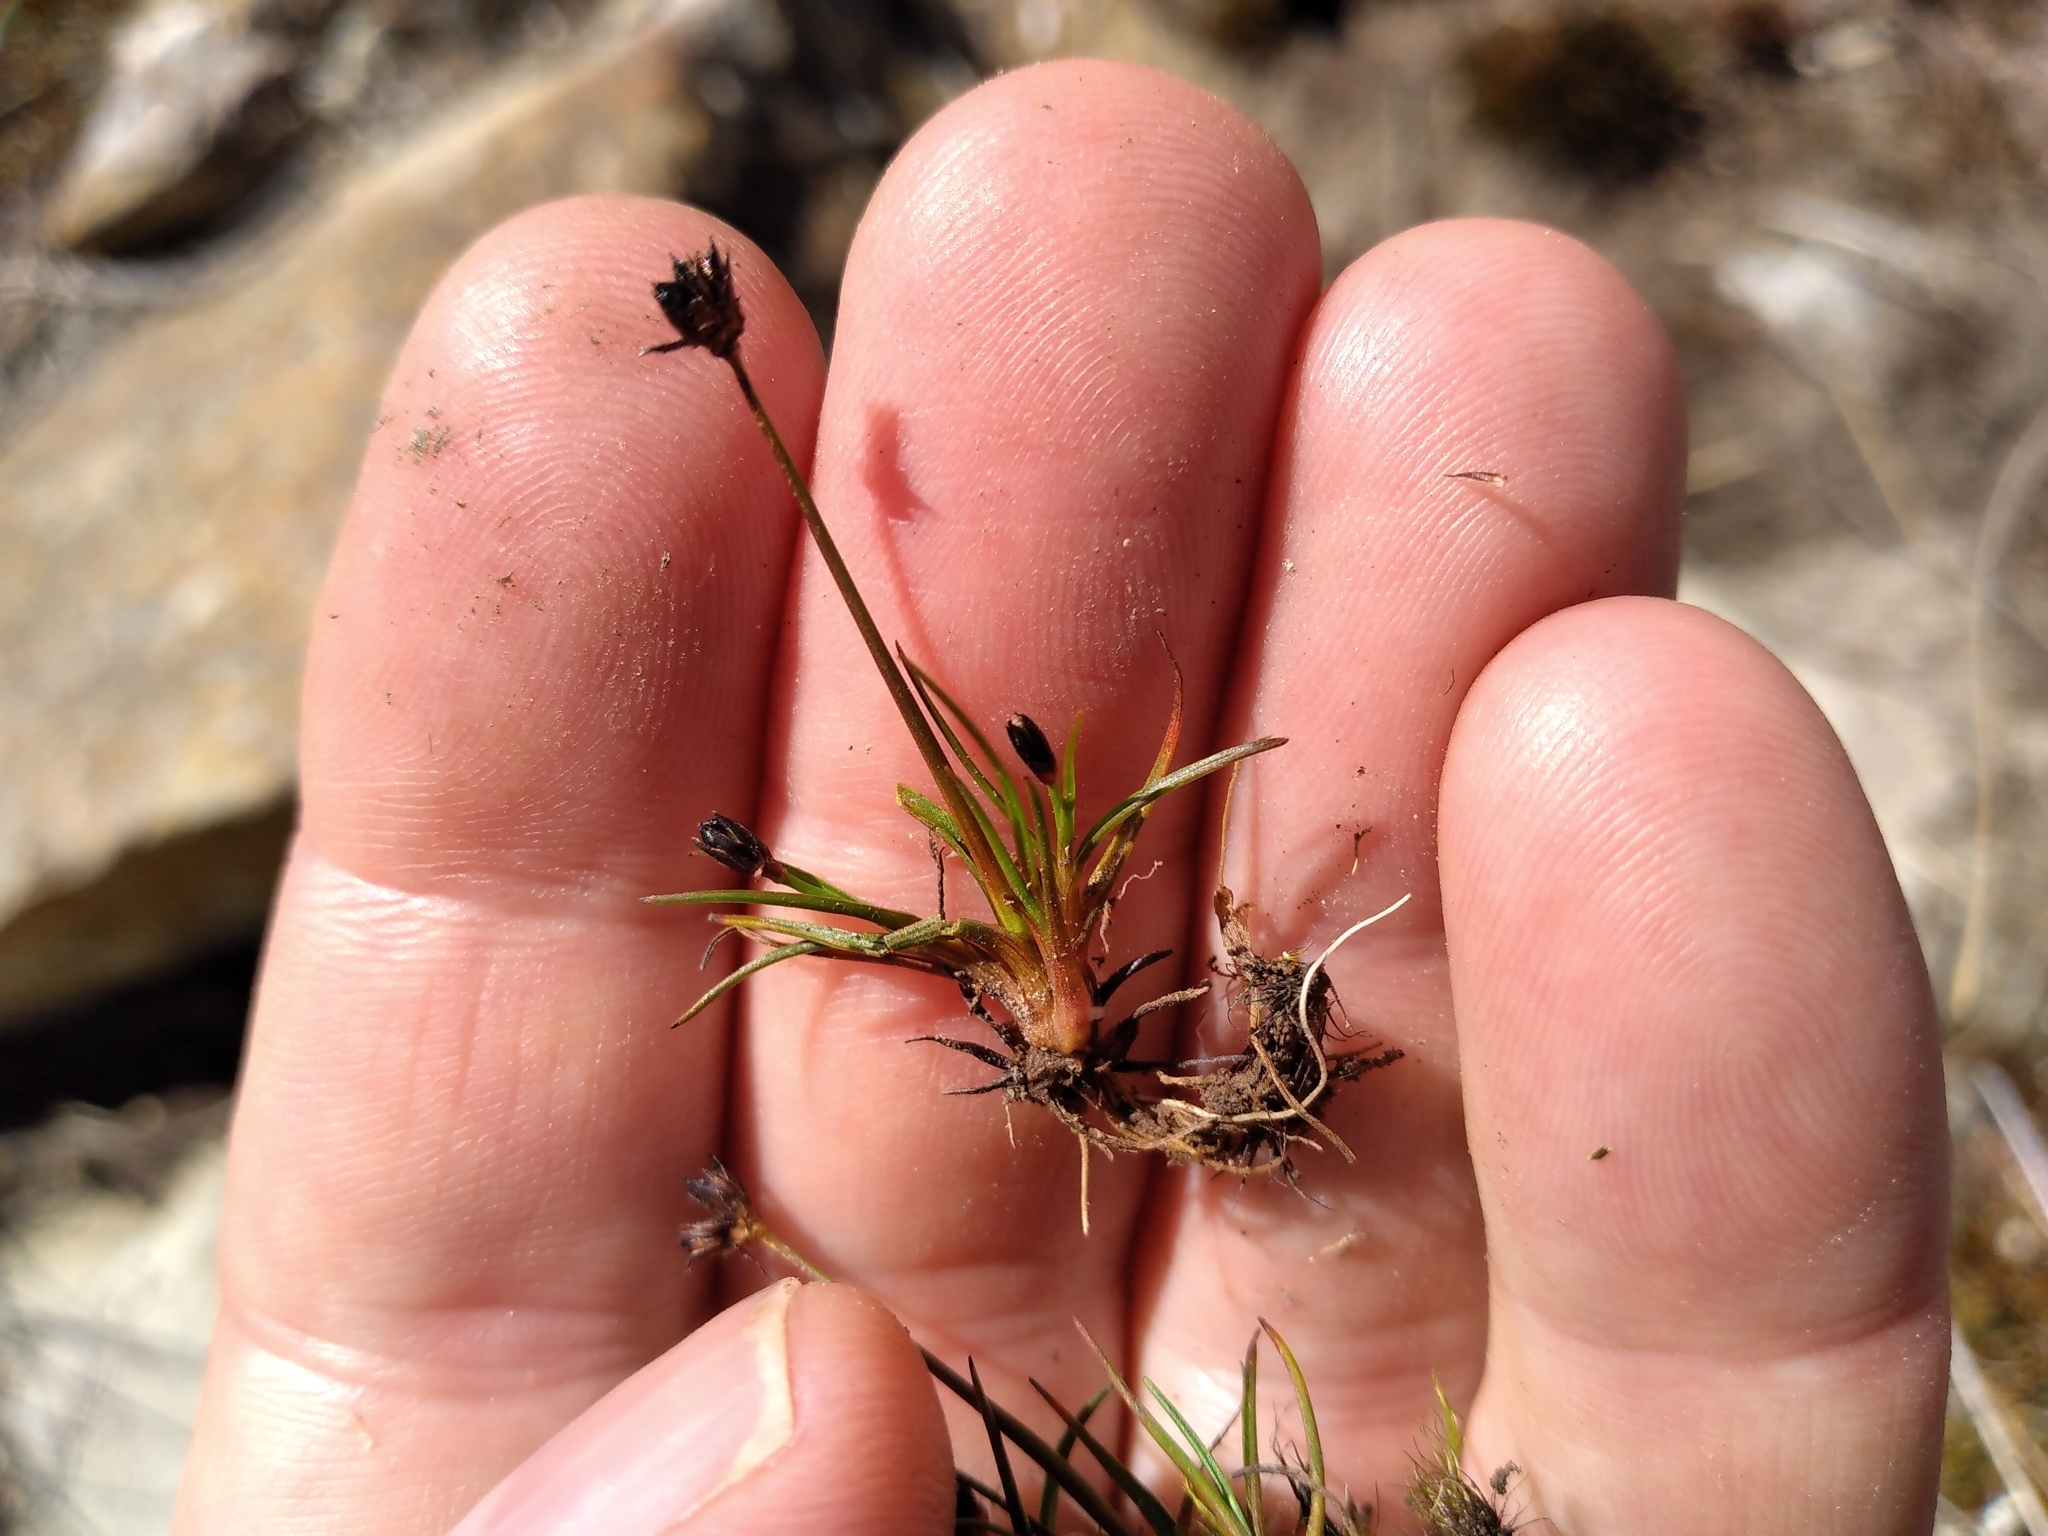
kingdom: Plantae
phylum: Tracheophyta
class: Liliopsida
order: Poales
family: Juncaceae
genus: Juncus
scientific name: Juncus antarcticus
